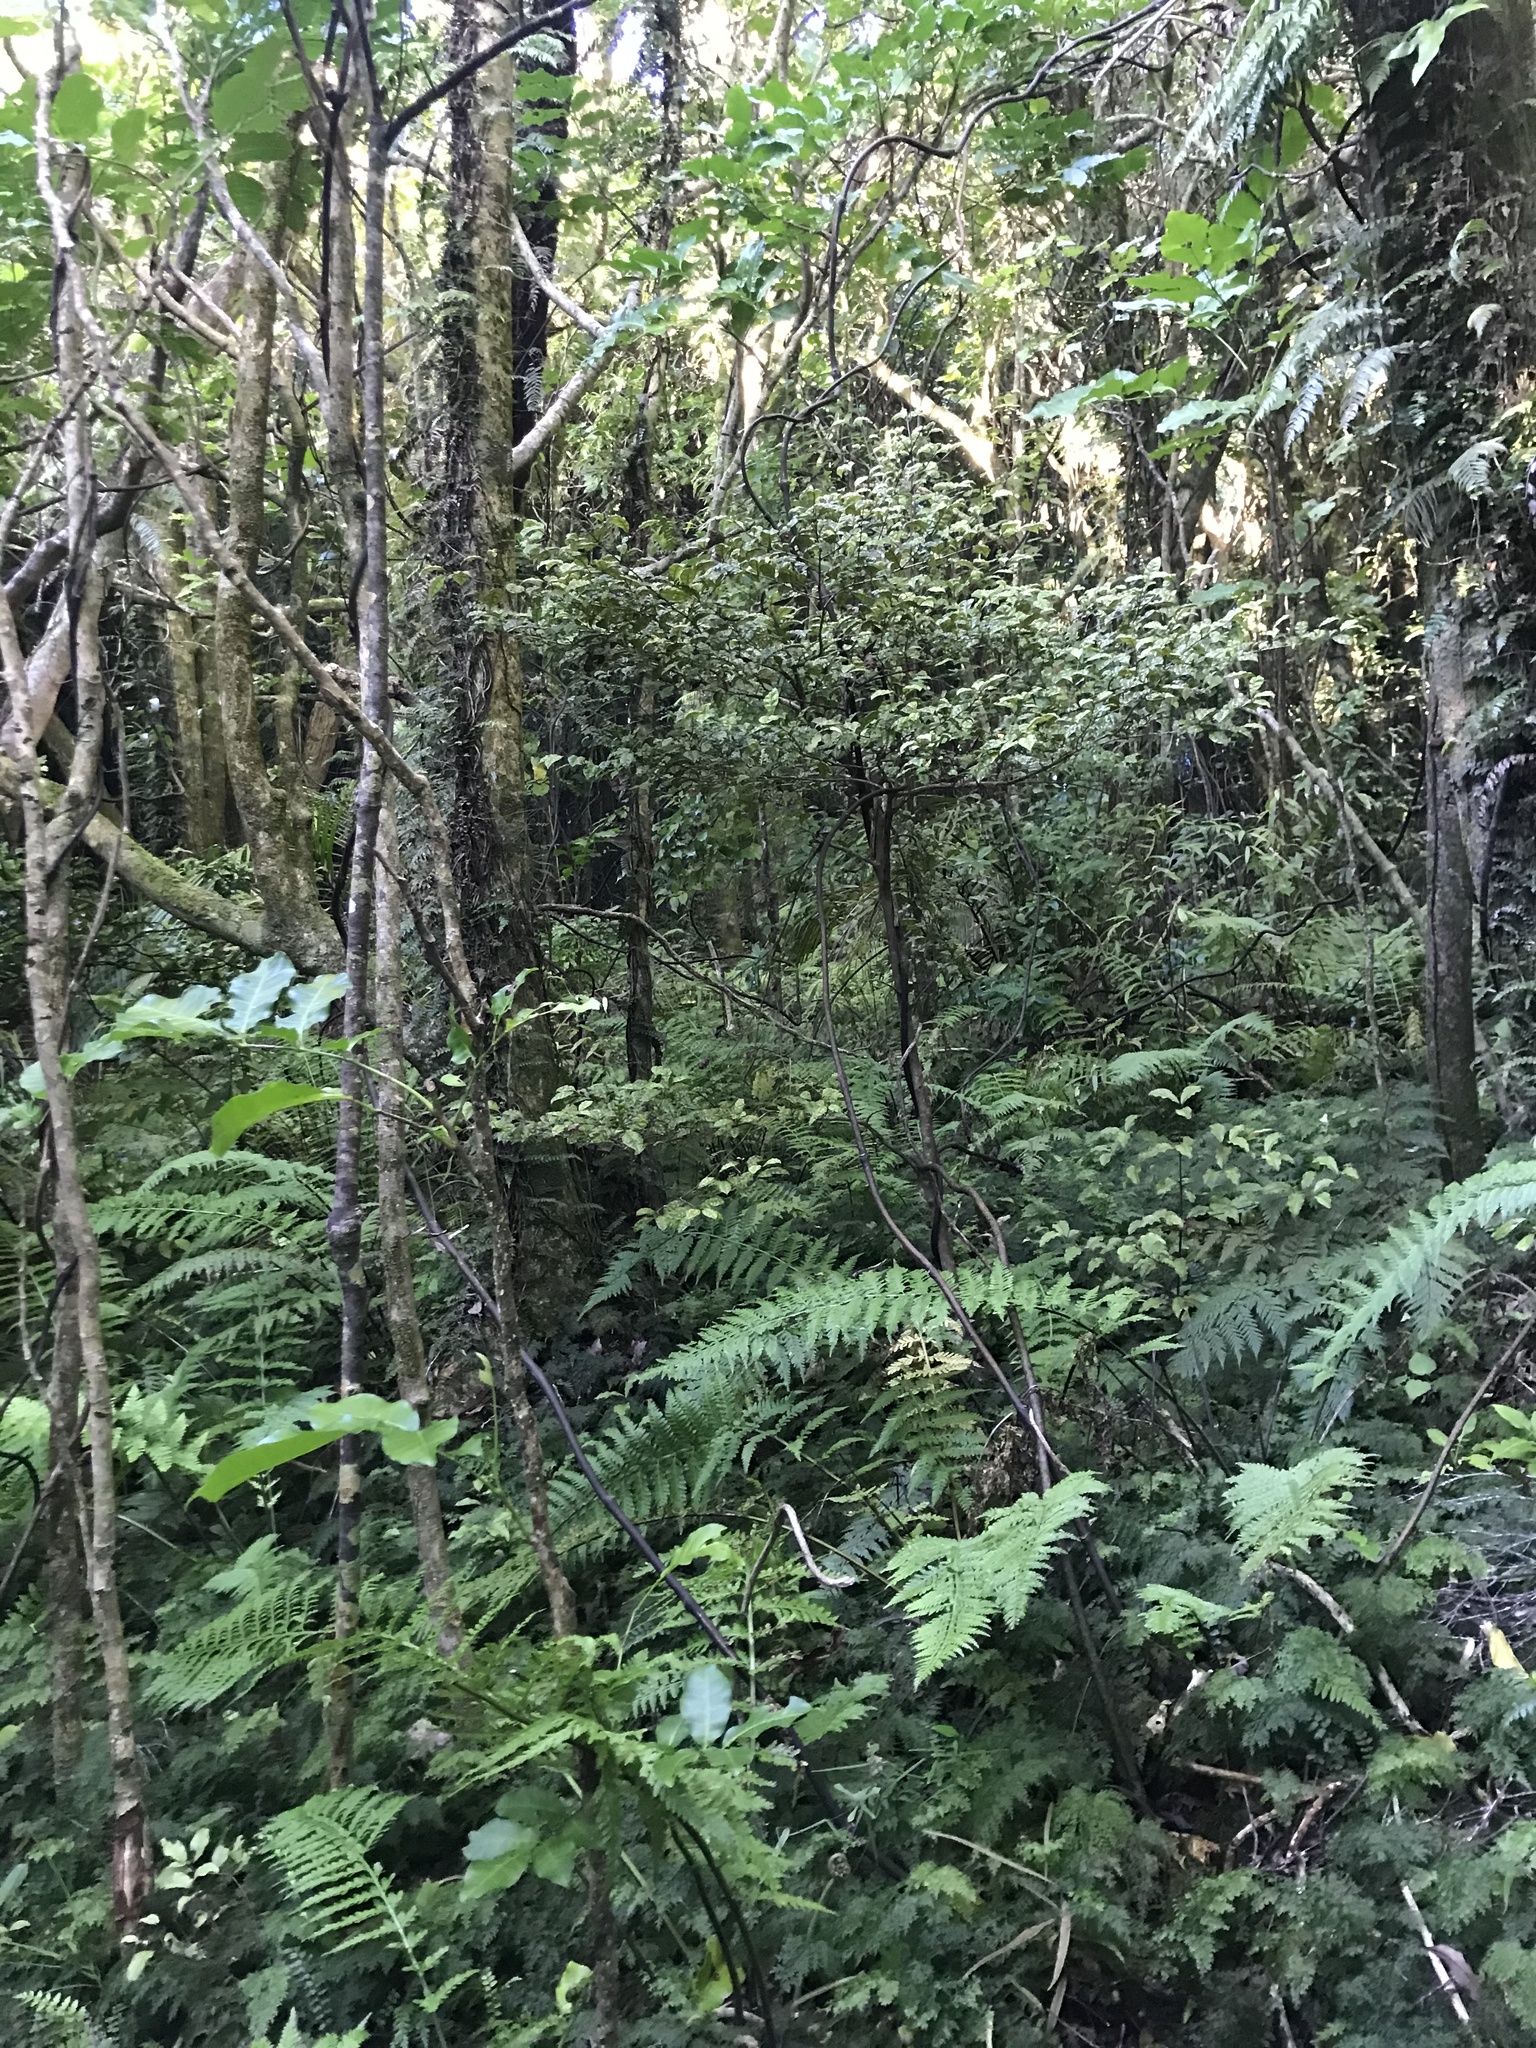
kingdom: Plantae
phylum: Tracheophyta
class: Magnoliopsida
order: Myrtales
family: Myrtaceae
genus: Lophomyrtus
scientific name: Lophomyrtus bullata
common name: Rama rama
